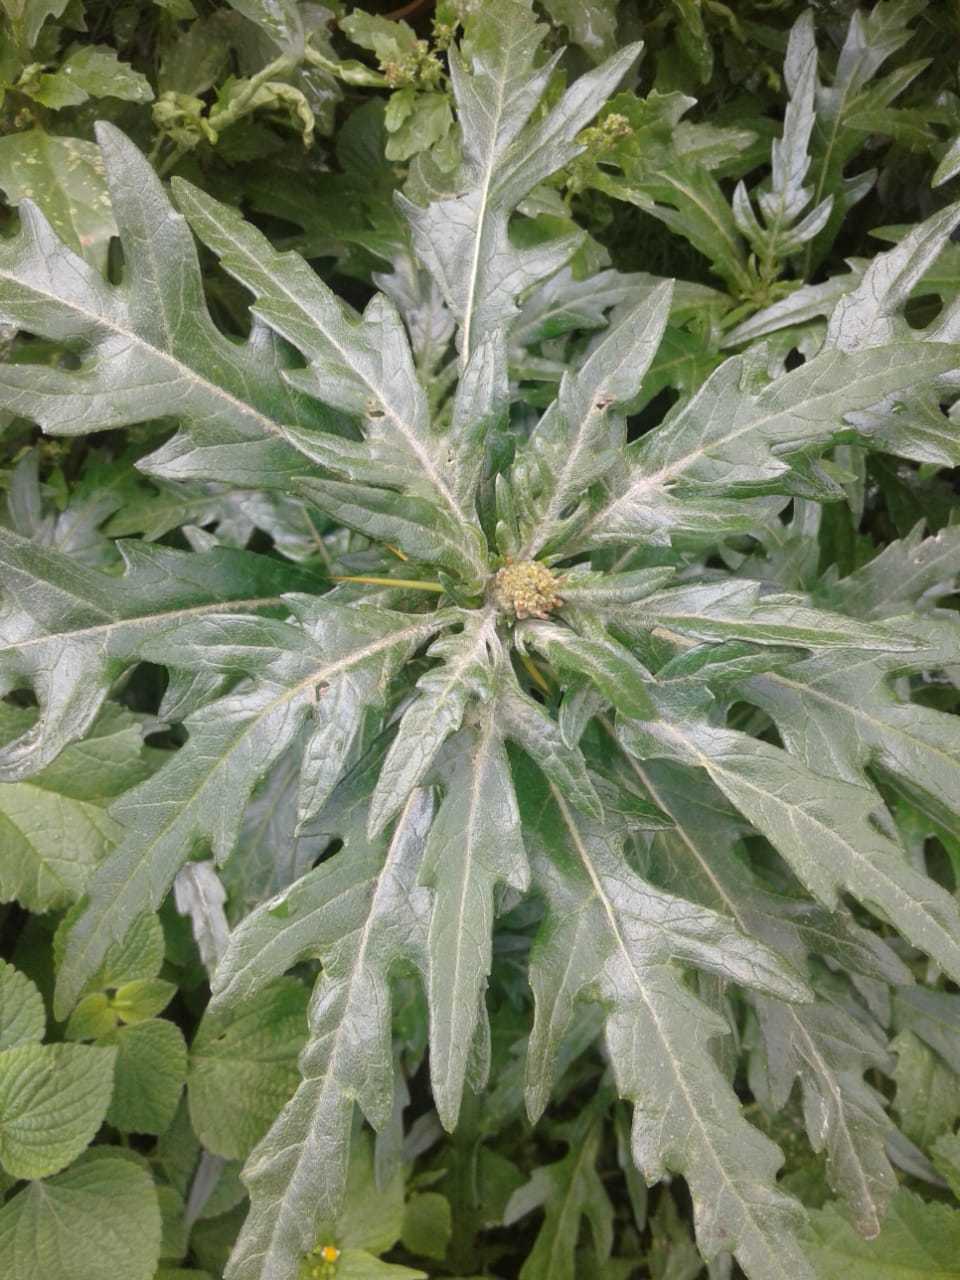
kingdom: Plantae
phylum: Tracheophyta
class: Magnoliopsida
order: Asterales
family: Asteraceae
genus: Xanthium
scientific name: Xanthium spinosum
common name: Spiny cocklebur
